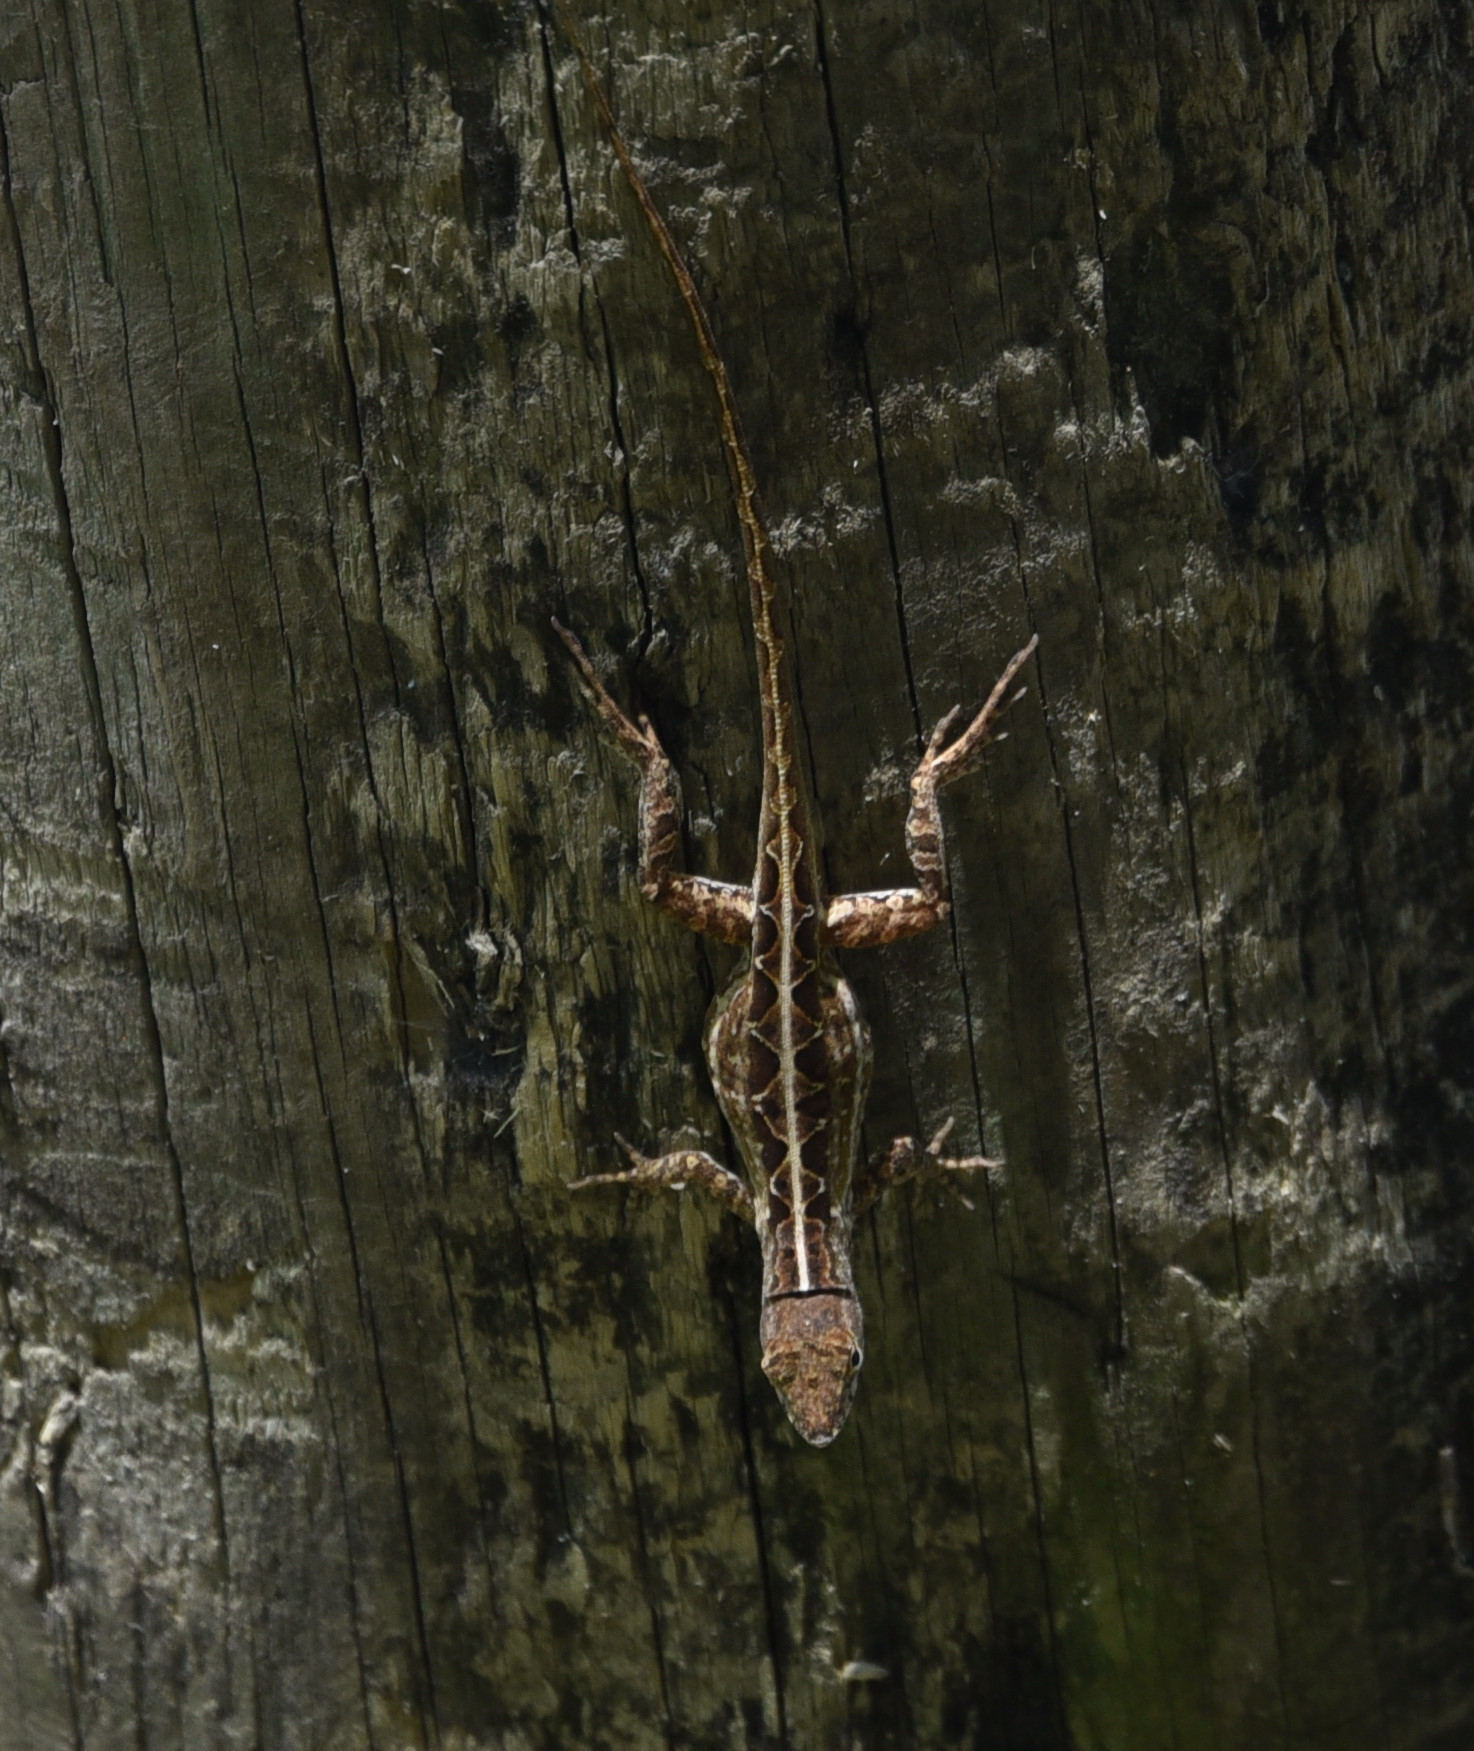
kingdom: Animalia
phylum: Chordata
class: Squamata
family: Dactyloidae
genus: Anolis
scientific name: Anolis sagrei
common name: Brown anole
